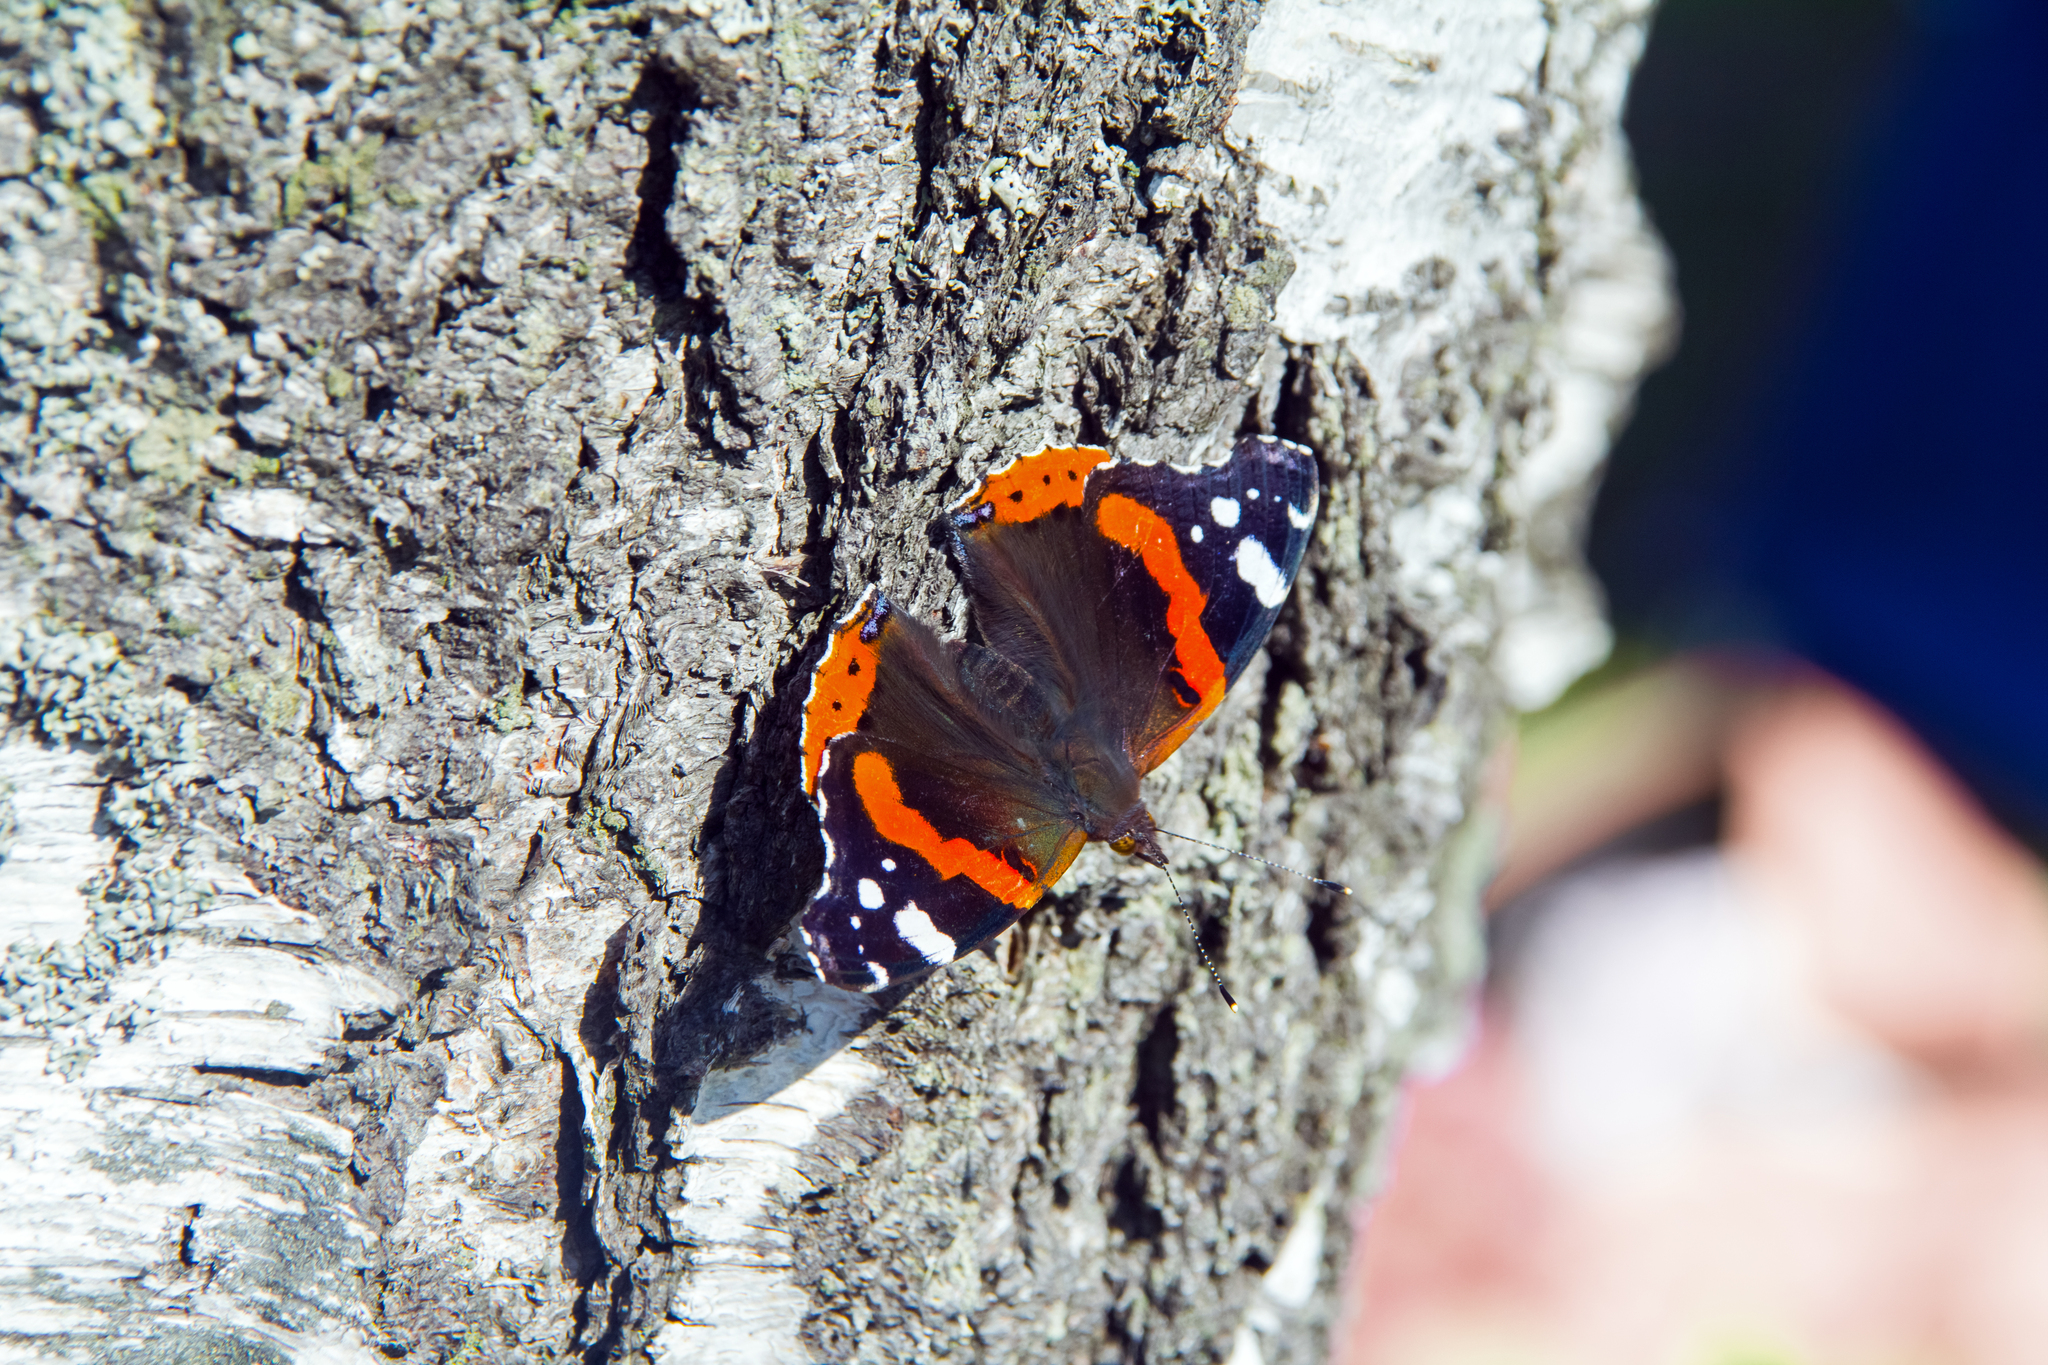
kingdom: Animalia
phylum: Arthropoda
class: Insecta
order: Lepidoptera
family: Nymphalidae
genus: Vanessa
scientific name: Vanessa atalanta
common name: Red admiral
